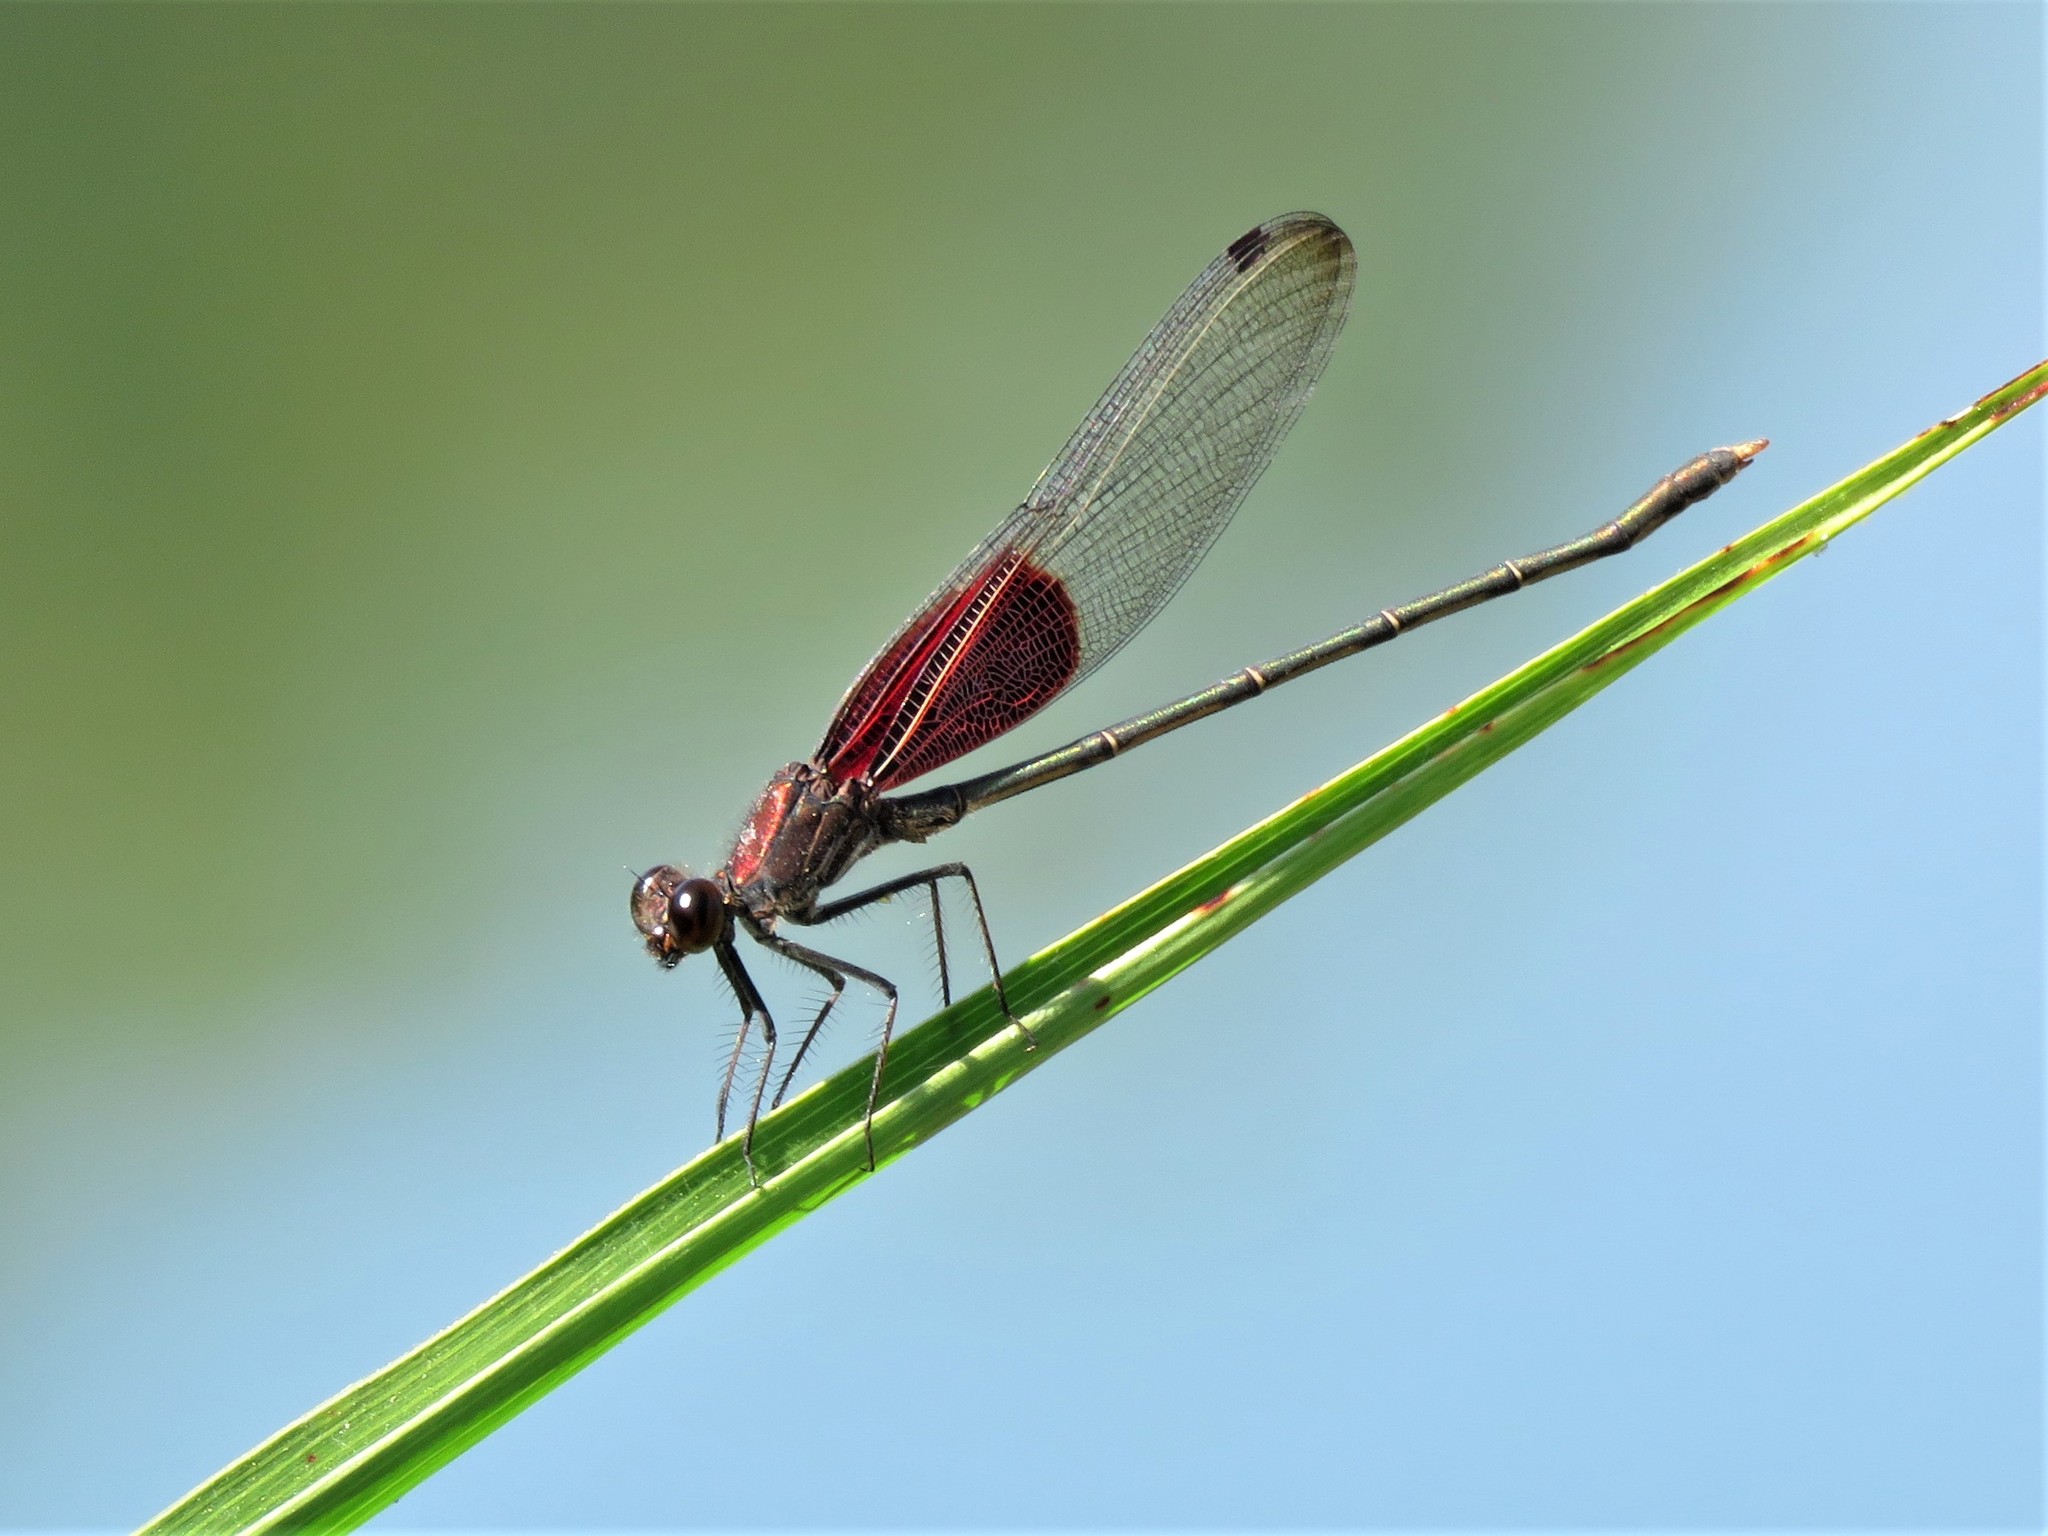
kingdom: Animalia
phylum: Arthropoda
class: Insecta
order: Odonata
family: Calopterygidae
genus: Hetaerina
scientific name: Hetaerina americana
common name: American rubyspot
